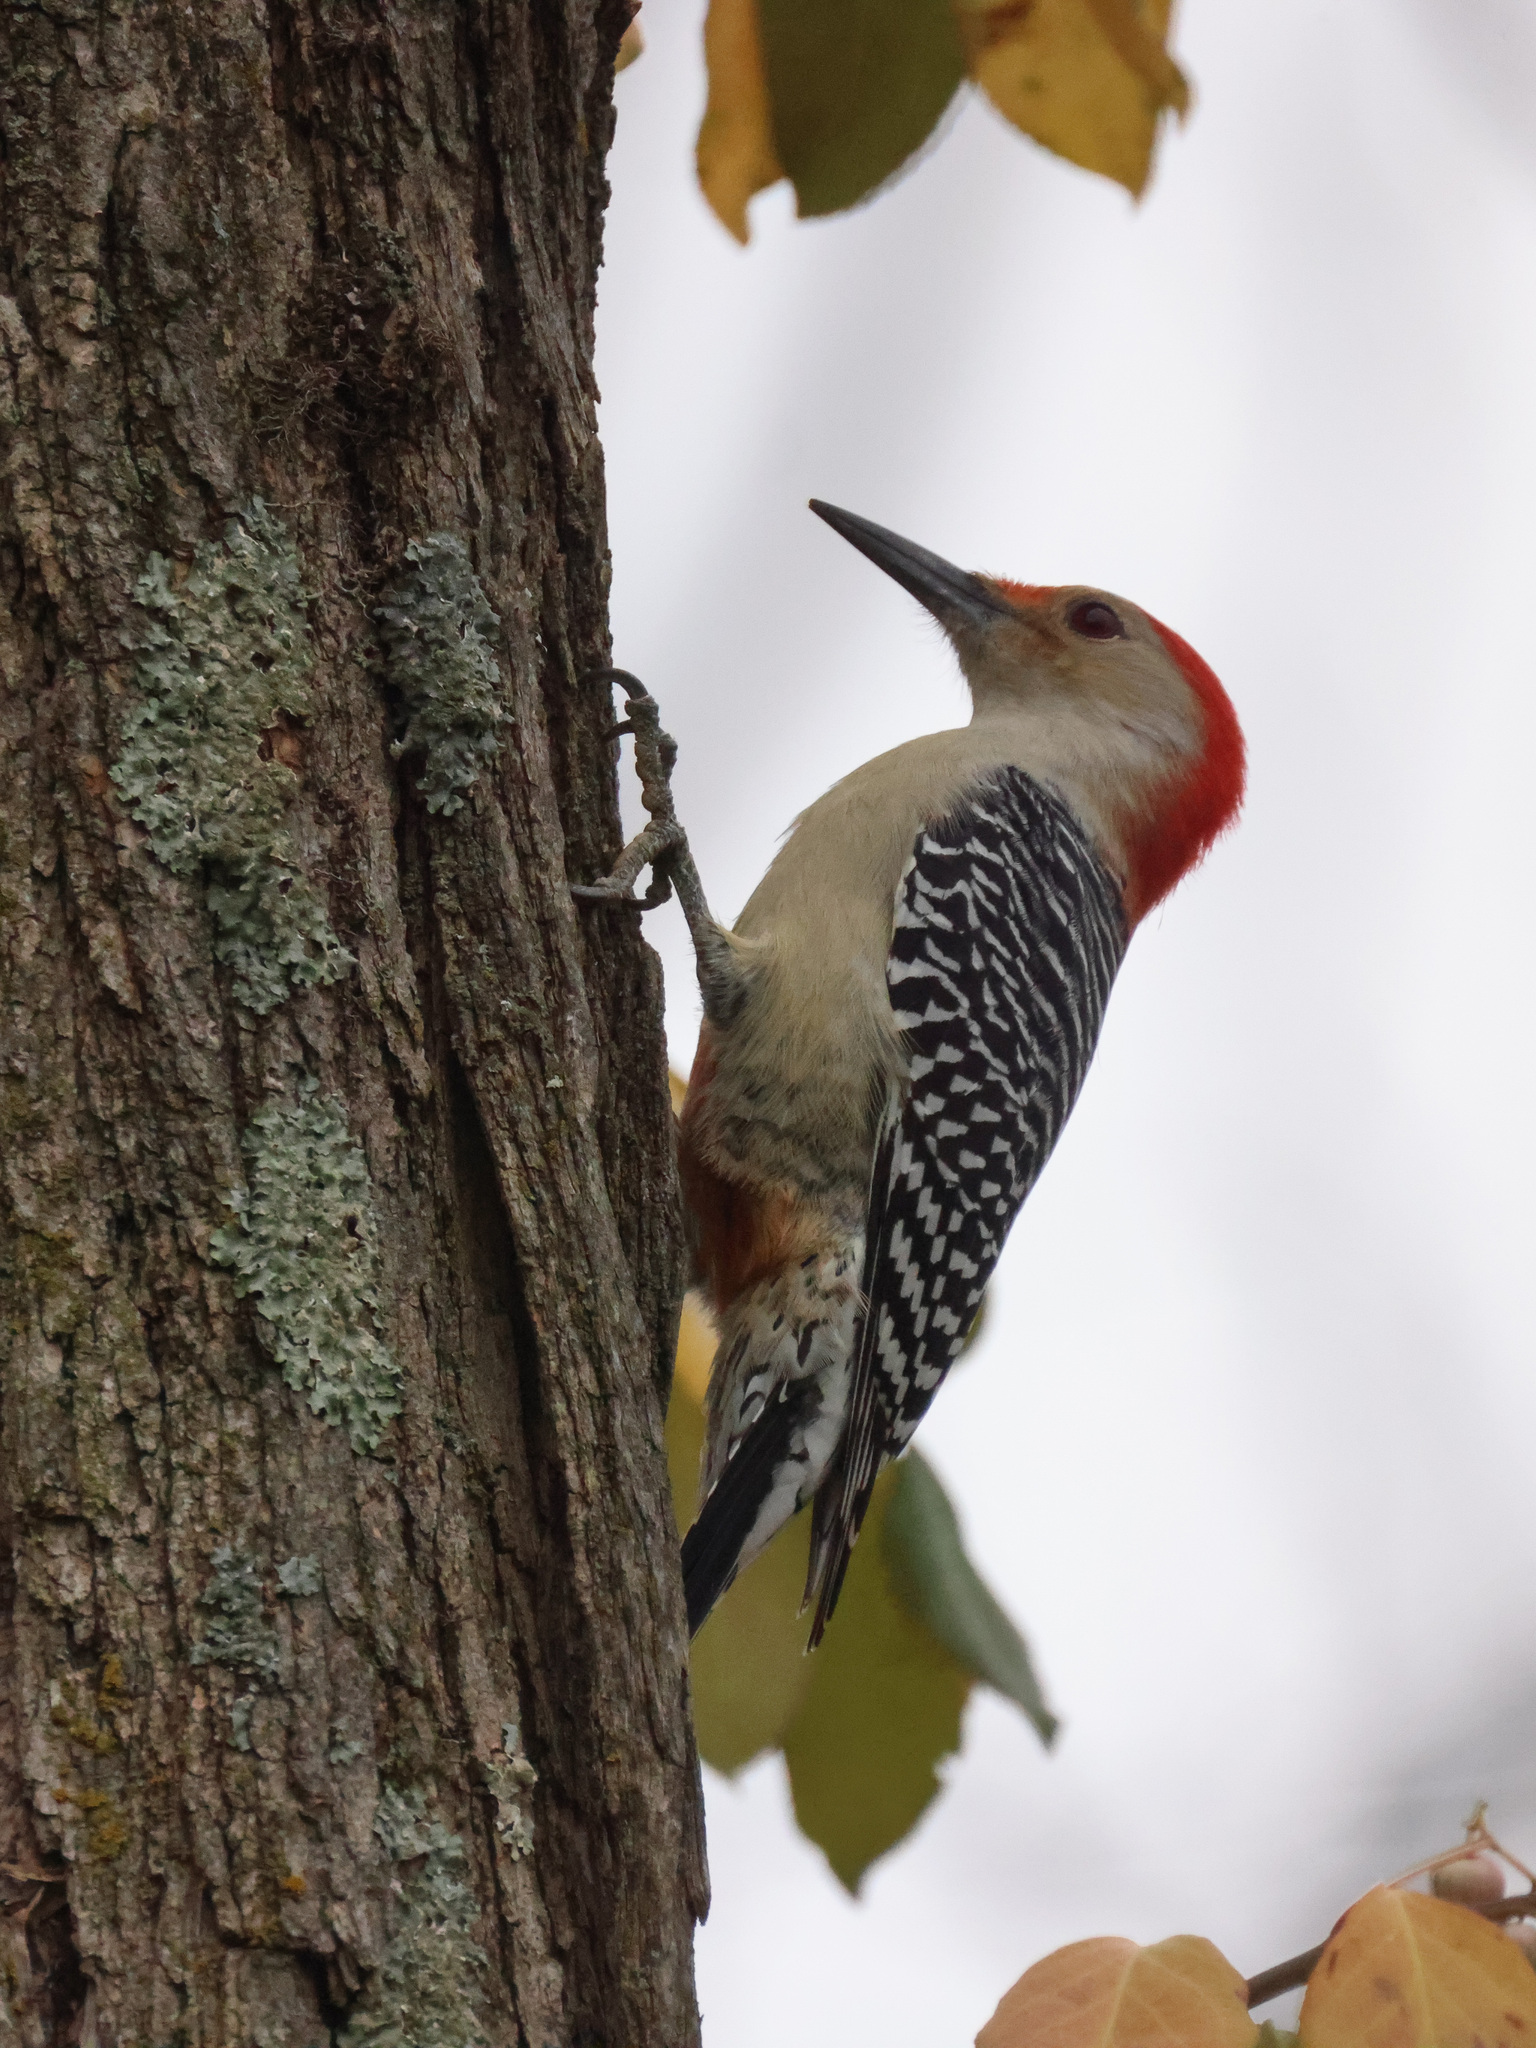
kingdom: Animalia
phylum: Chordata
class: Aves
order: Piciformes
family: Picidae
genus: Melanerpes
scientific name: Melanerpes carolinus
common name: Red-bellied woodpecker
